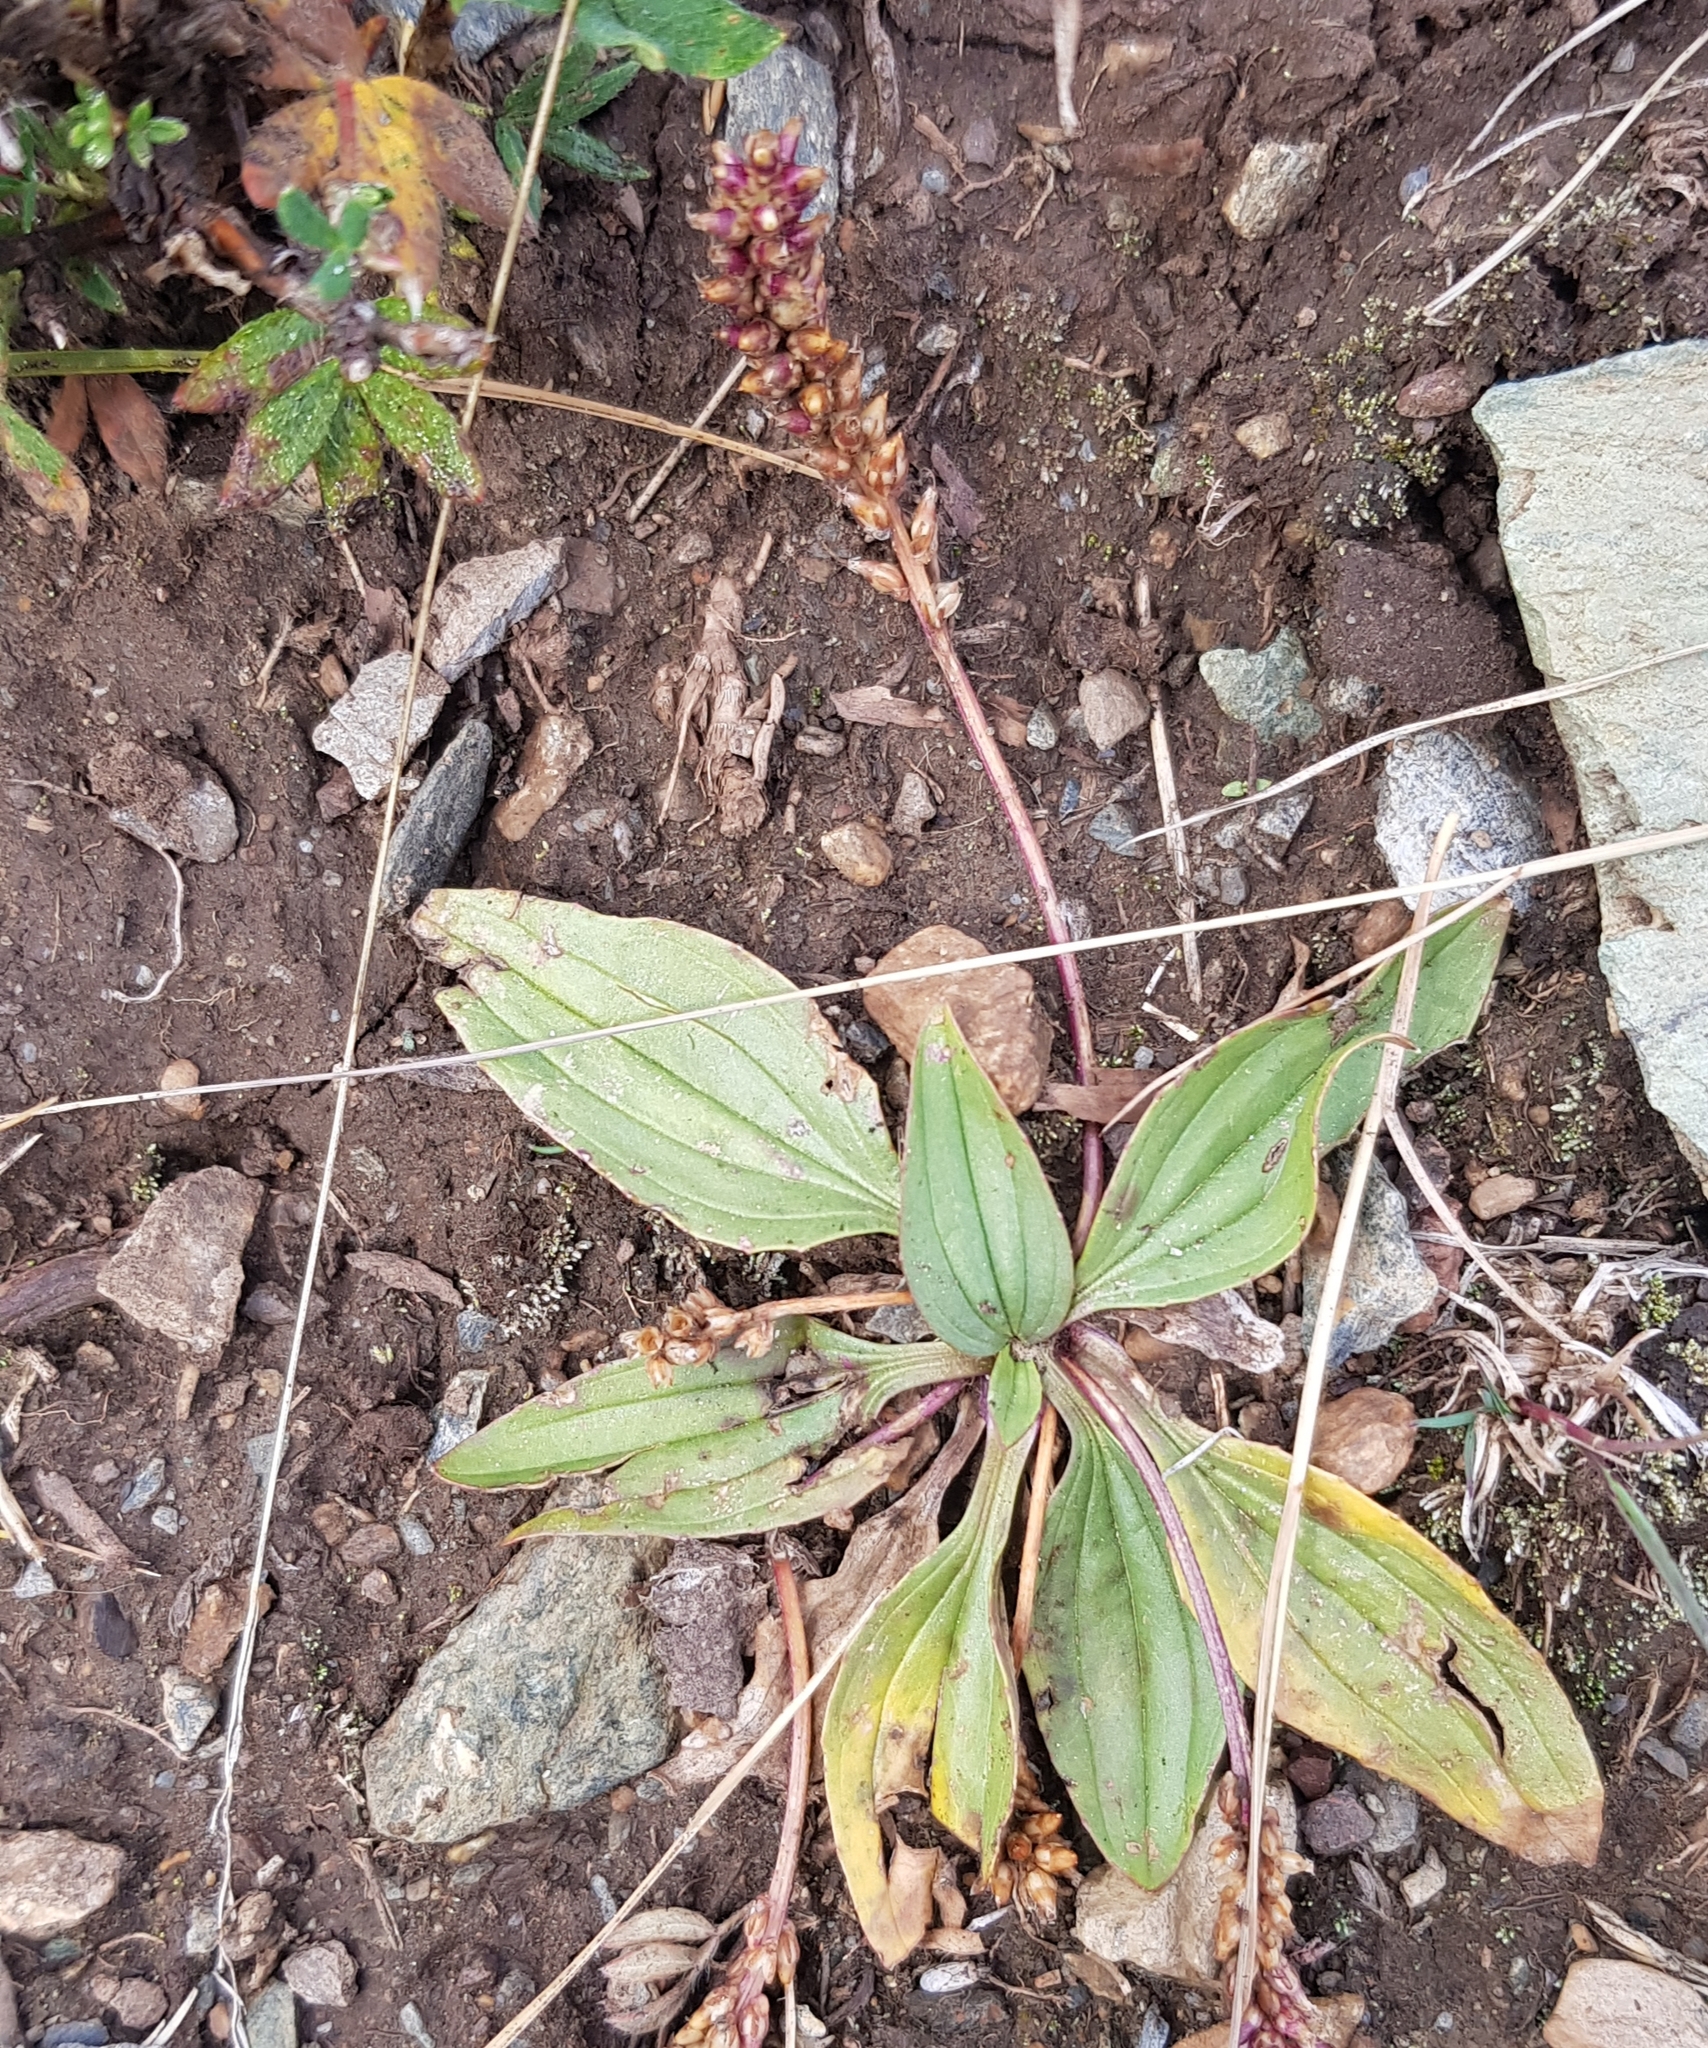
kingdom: Plantae
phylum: Tracheophyta
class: Magnoliopsida
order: Lamiales
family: Plantaginaceae
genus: Plantago
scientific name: Plantago depressa
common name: Depressed plantain
